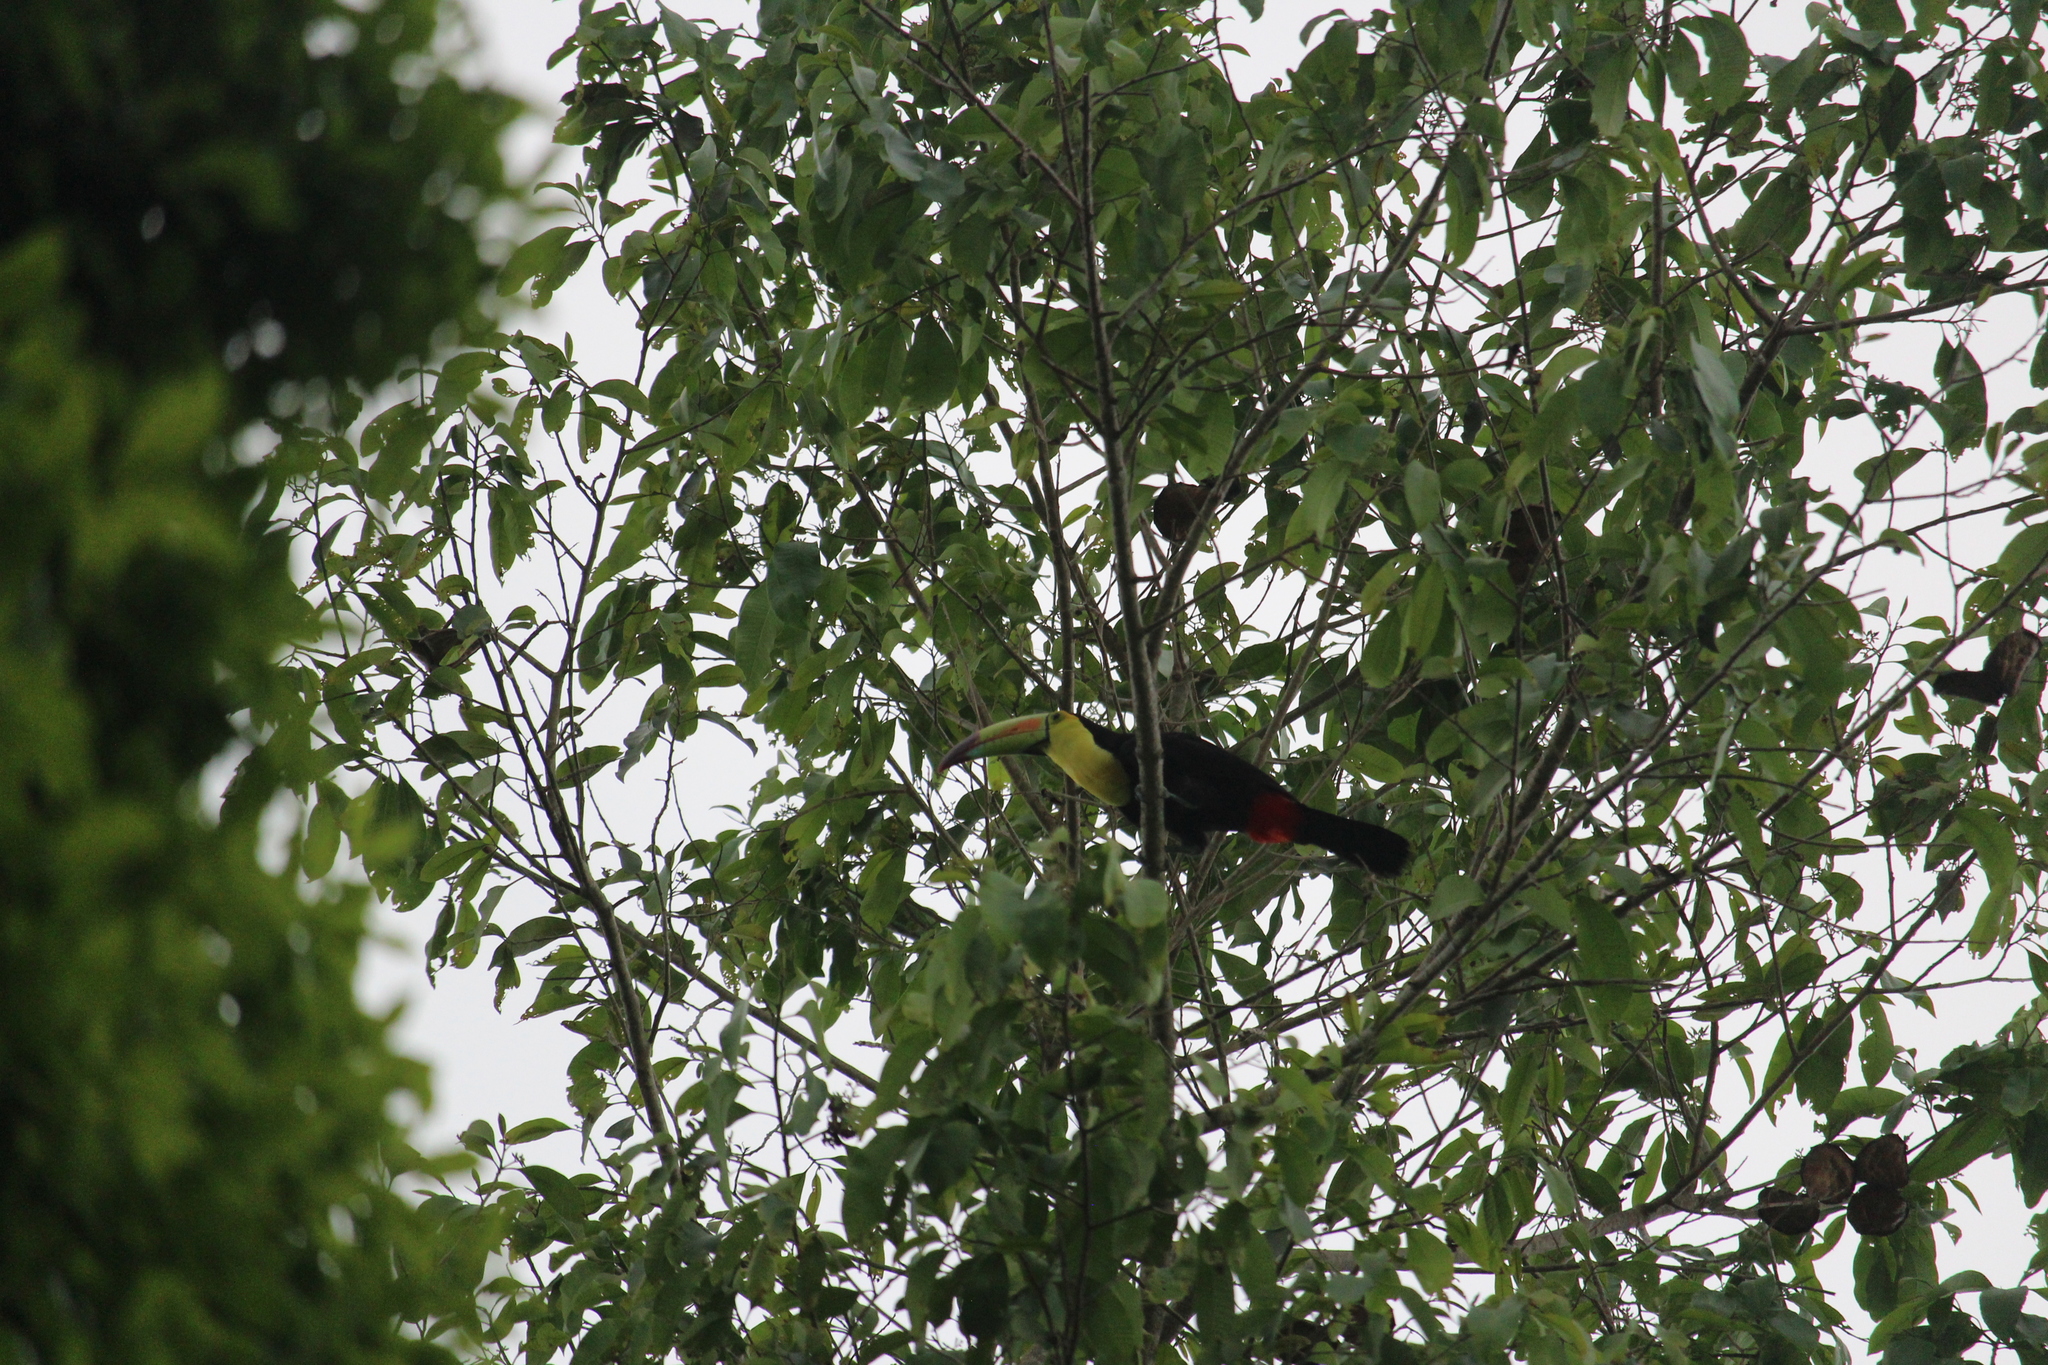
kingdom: Animalia
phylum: Chordata
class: Aves
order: Piciformes
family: Ramphastidae
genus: Ramphastos
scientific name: Ramphastos sulfuratus
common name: Keel-billed toucan
